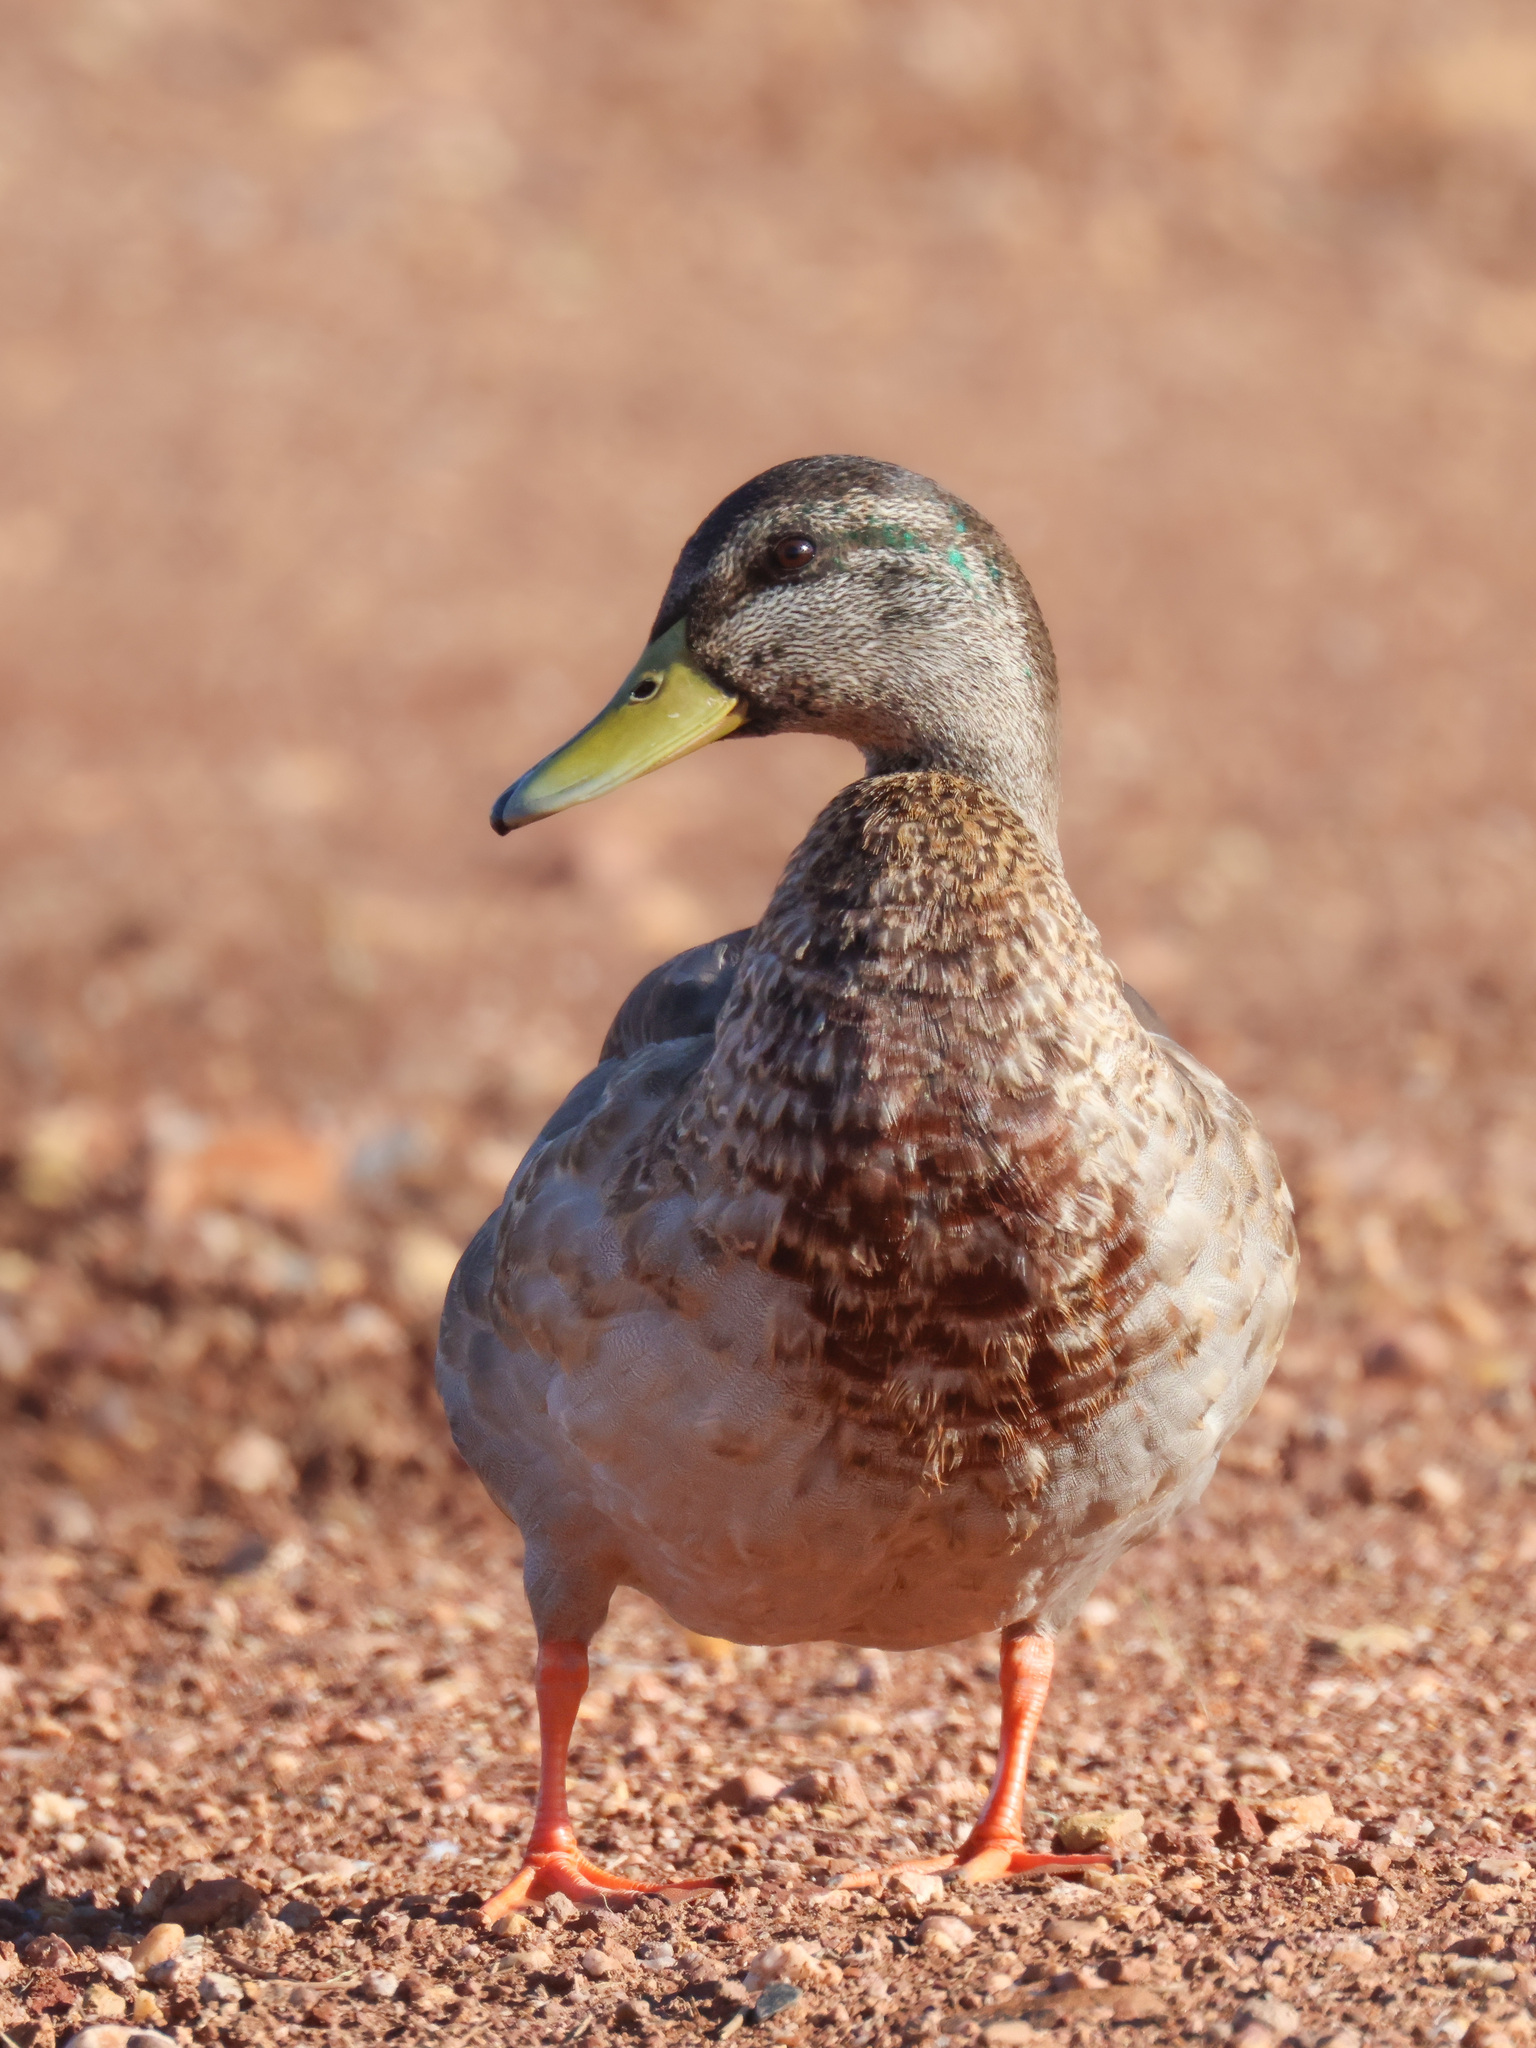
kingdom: Animalia
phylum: Chordata
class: Aves
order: Anseriformes
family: Anatidae
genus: Anas
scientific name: Anas platyrhynchos
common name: Mallard
